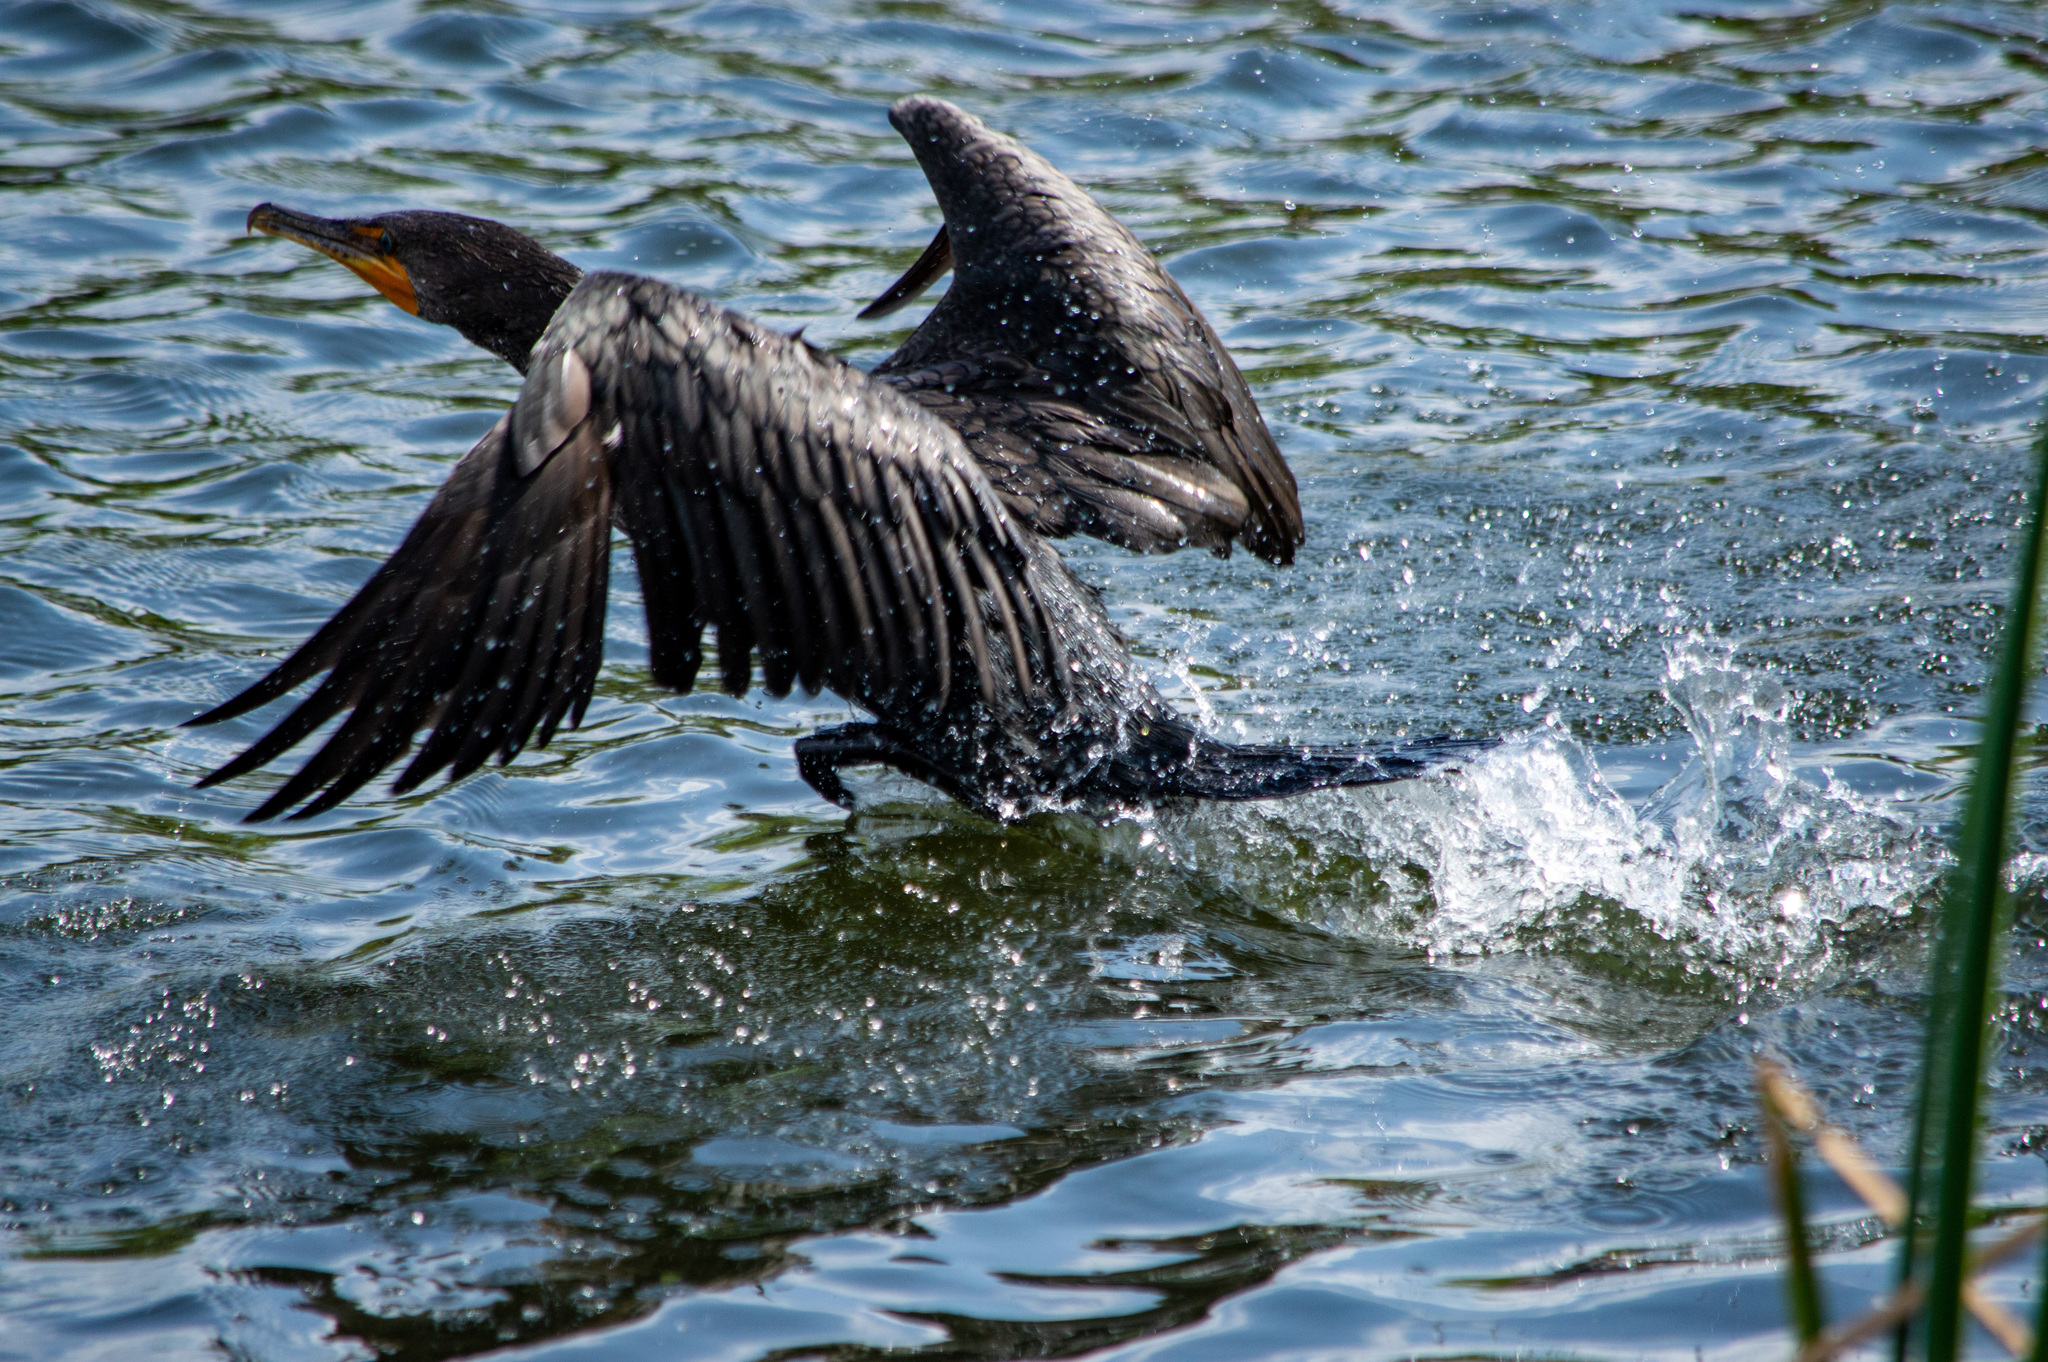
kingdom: Animalia
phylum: Chordata
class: Aves
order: Suliformes
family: Phalacrocoracidae
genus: Phalacrocorax
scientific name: Phalacrocorax auritus
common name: Double-crested cormorant
